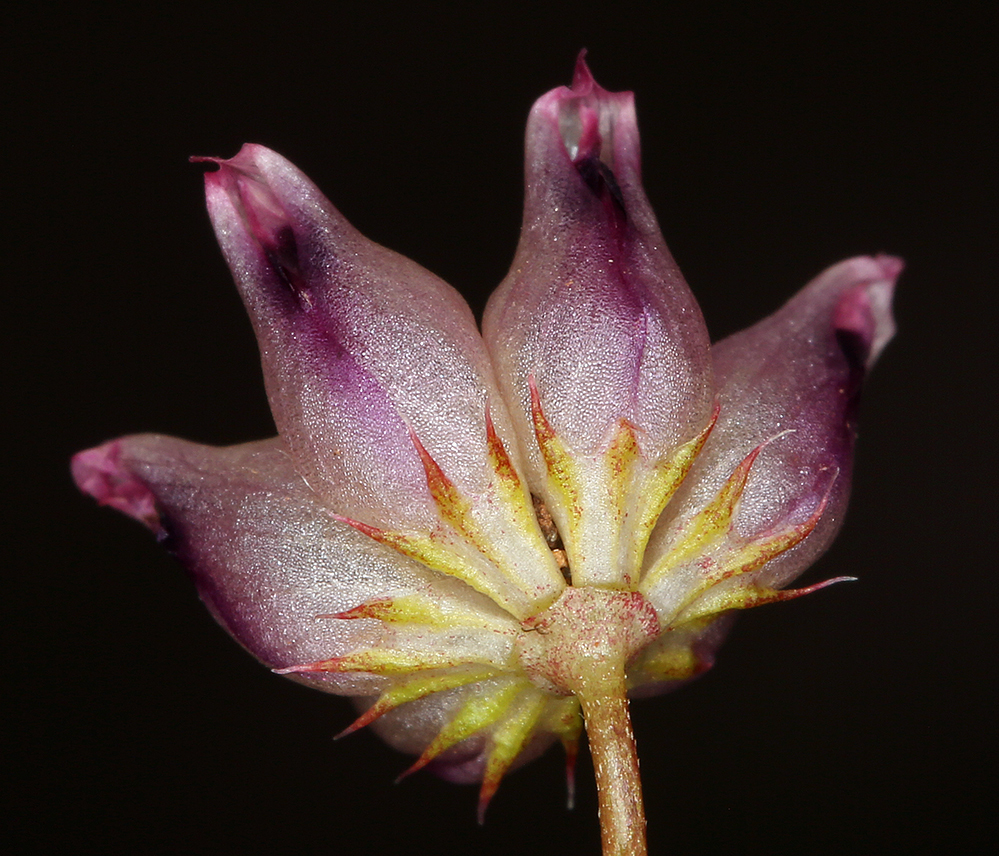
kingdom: Plantae
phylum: Tracheophyta
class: Magnoliopsida
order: Fabales
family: Fabaceae
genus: Trifolium
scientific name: Trifolium depauperatum
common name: Poverty clover
